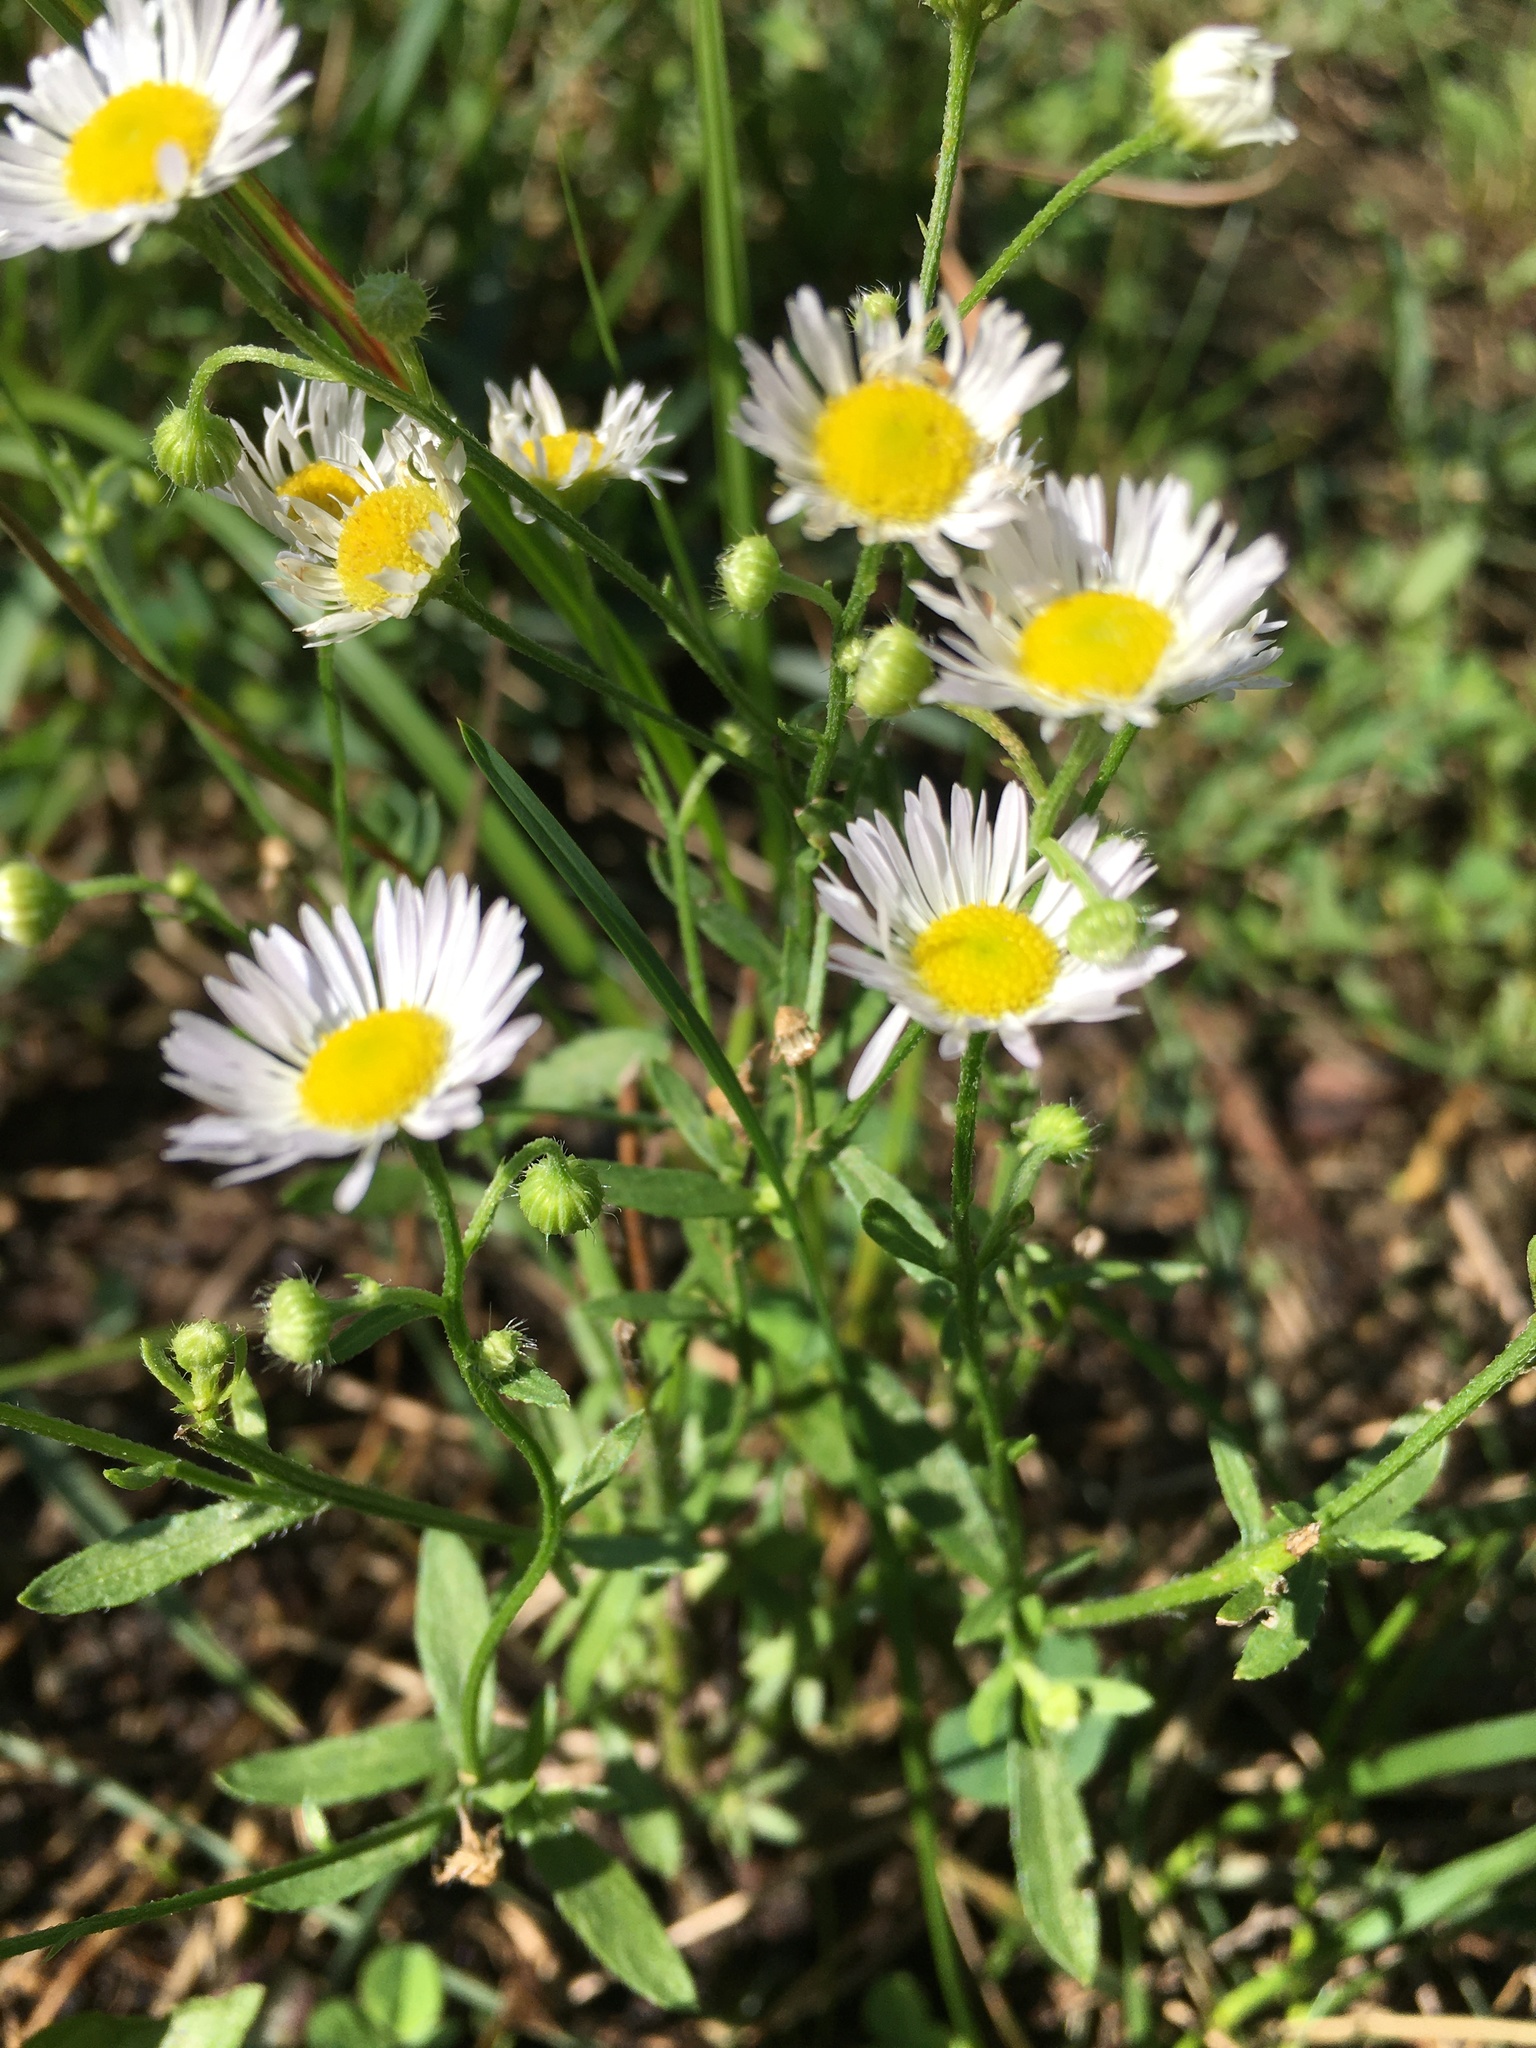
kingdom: Plantae
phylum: Tracheophyta
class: Magnoliopsida
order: Asterales
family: Asteraceae
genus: Erigeron
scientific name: Erigeron strigosus
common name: Common eastern fleabane
